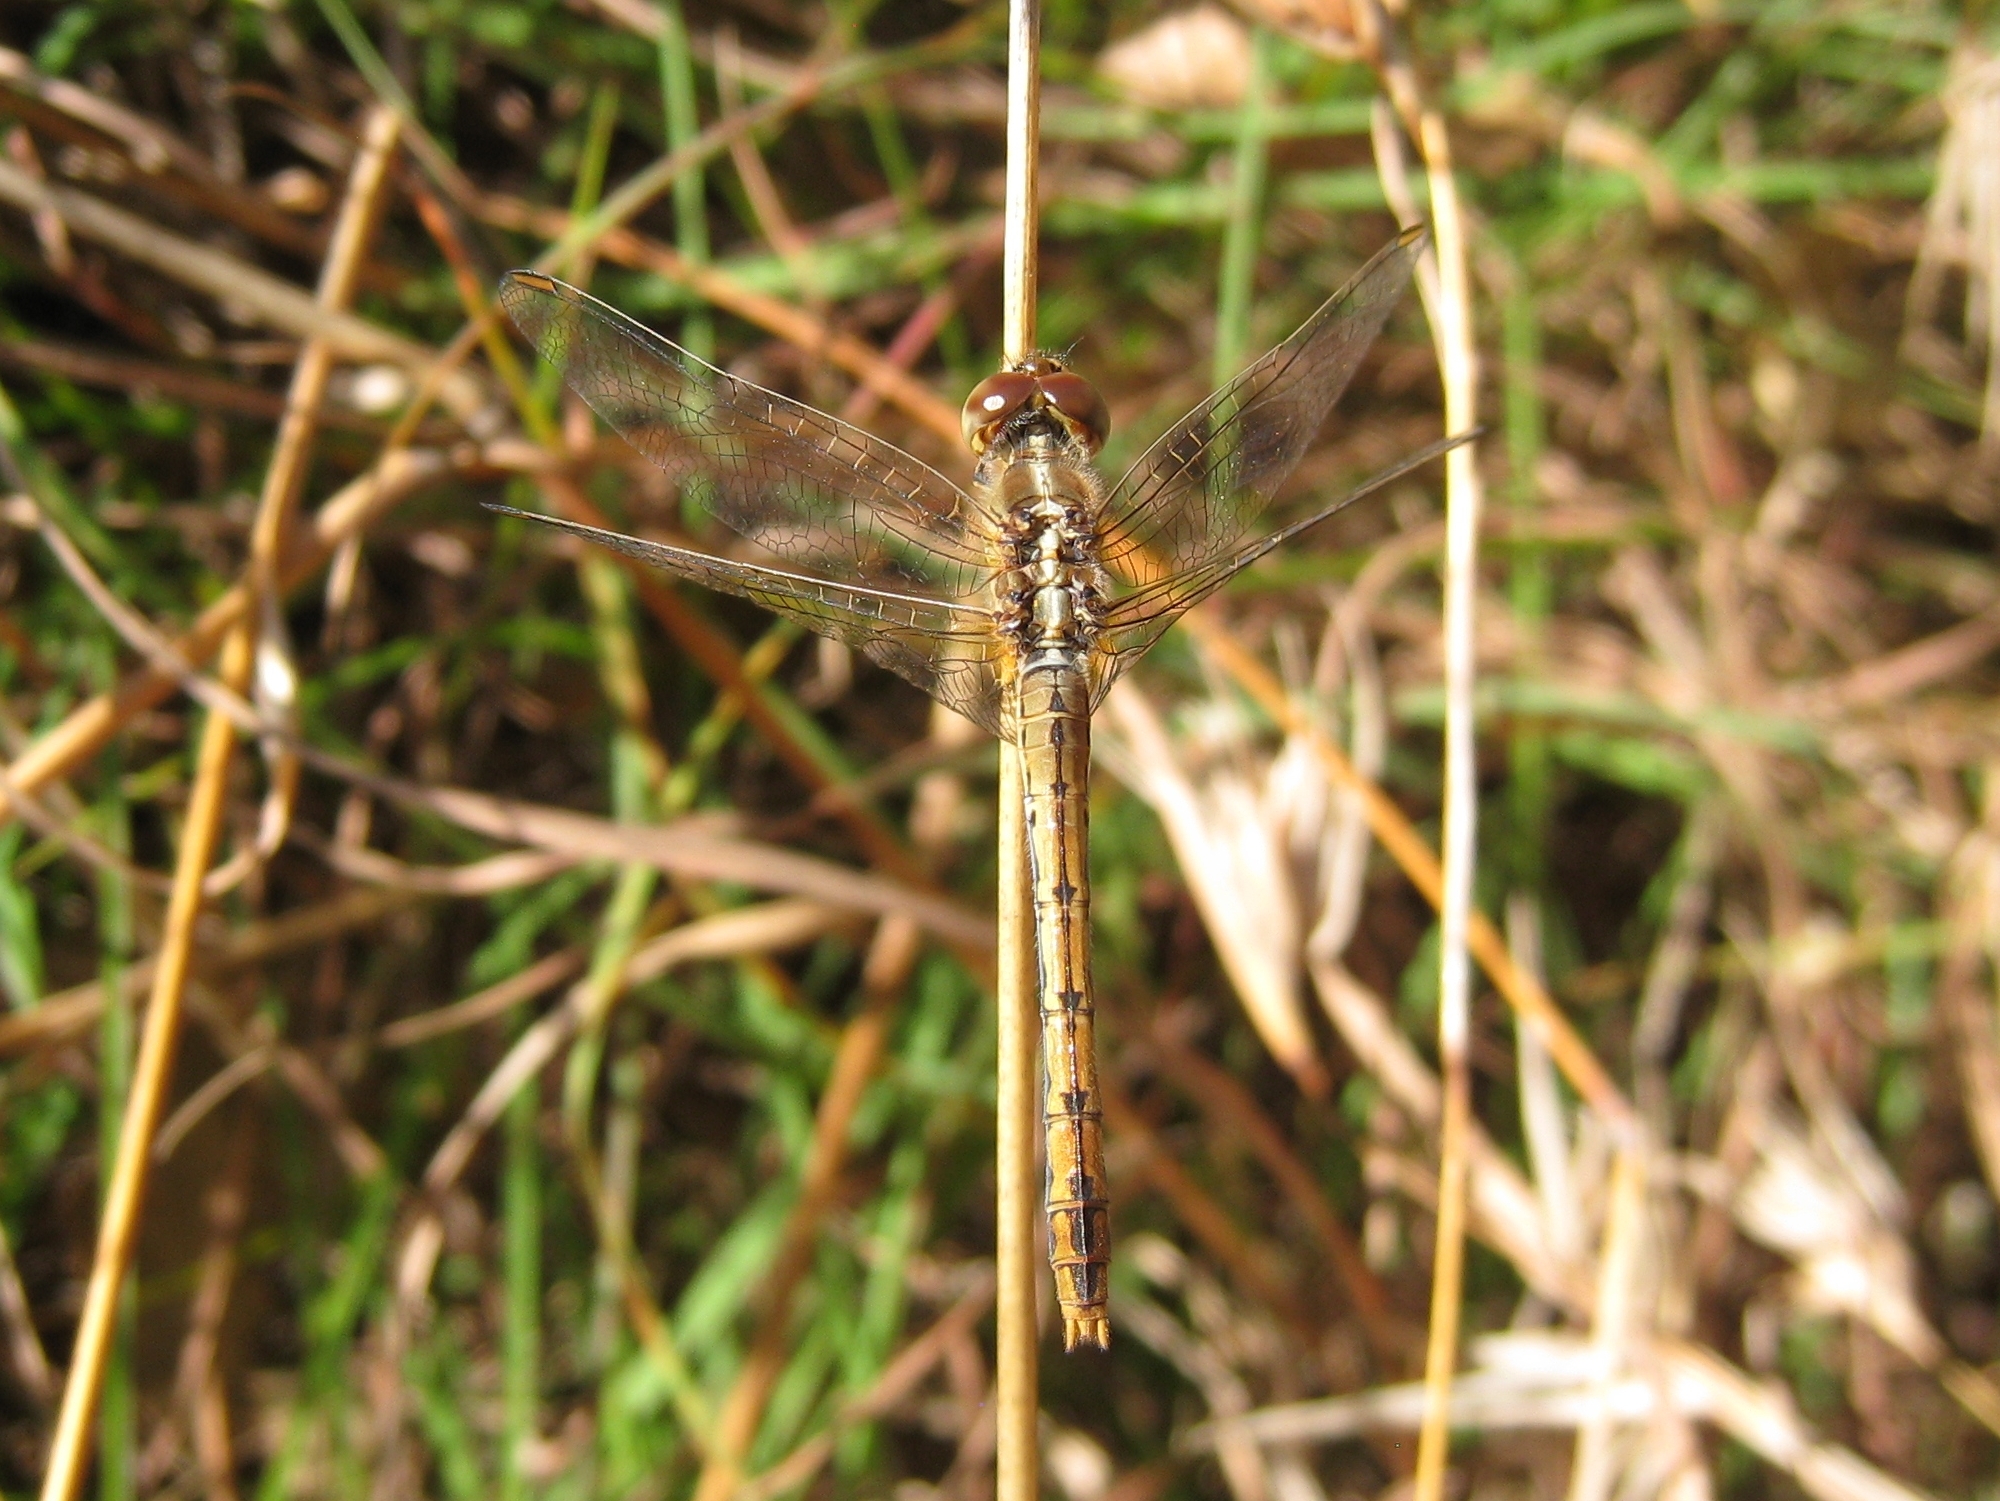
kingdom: Animalia
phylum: Arthropoda
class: Insecta
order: Odonata
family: Libellulidae
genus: Diplacodes
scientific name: Diplacodes bipunctata
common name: Red percher dragonfly
